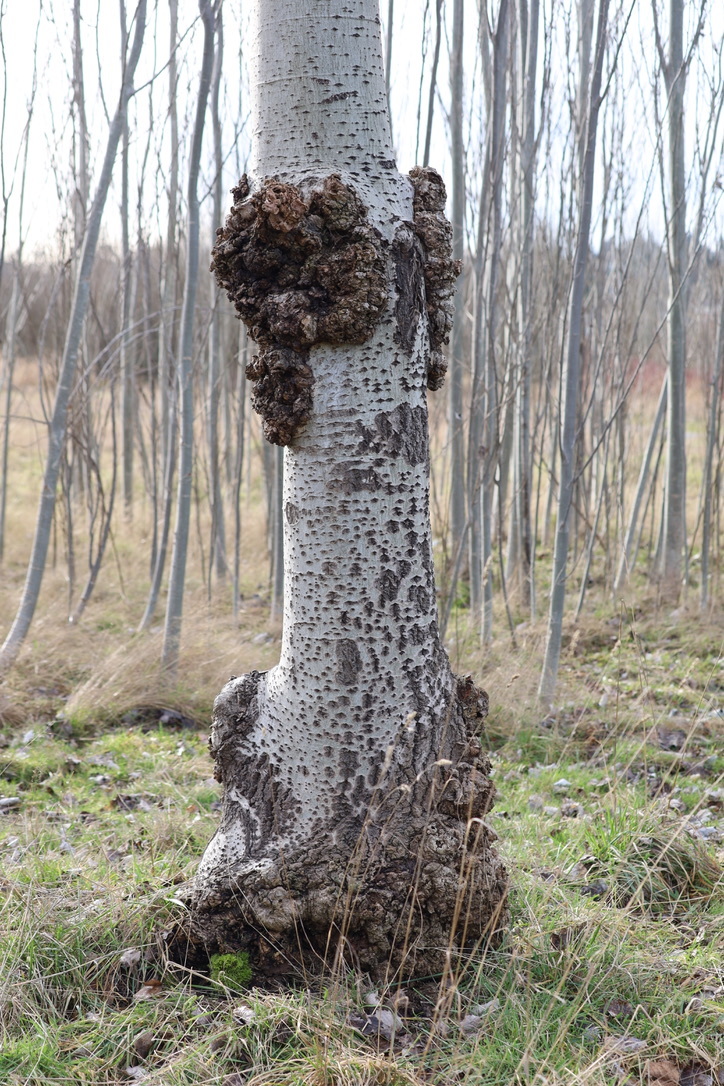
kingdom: Bacteria
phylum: Proteobacteria
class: Alphaproteobacteria
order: Rhizobiales
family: Rhizobiaceae
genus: Rhizobium
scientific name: Rhizobium Agrobacterium radiobacter
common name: Bacterial crown gall
